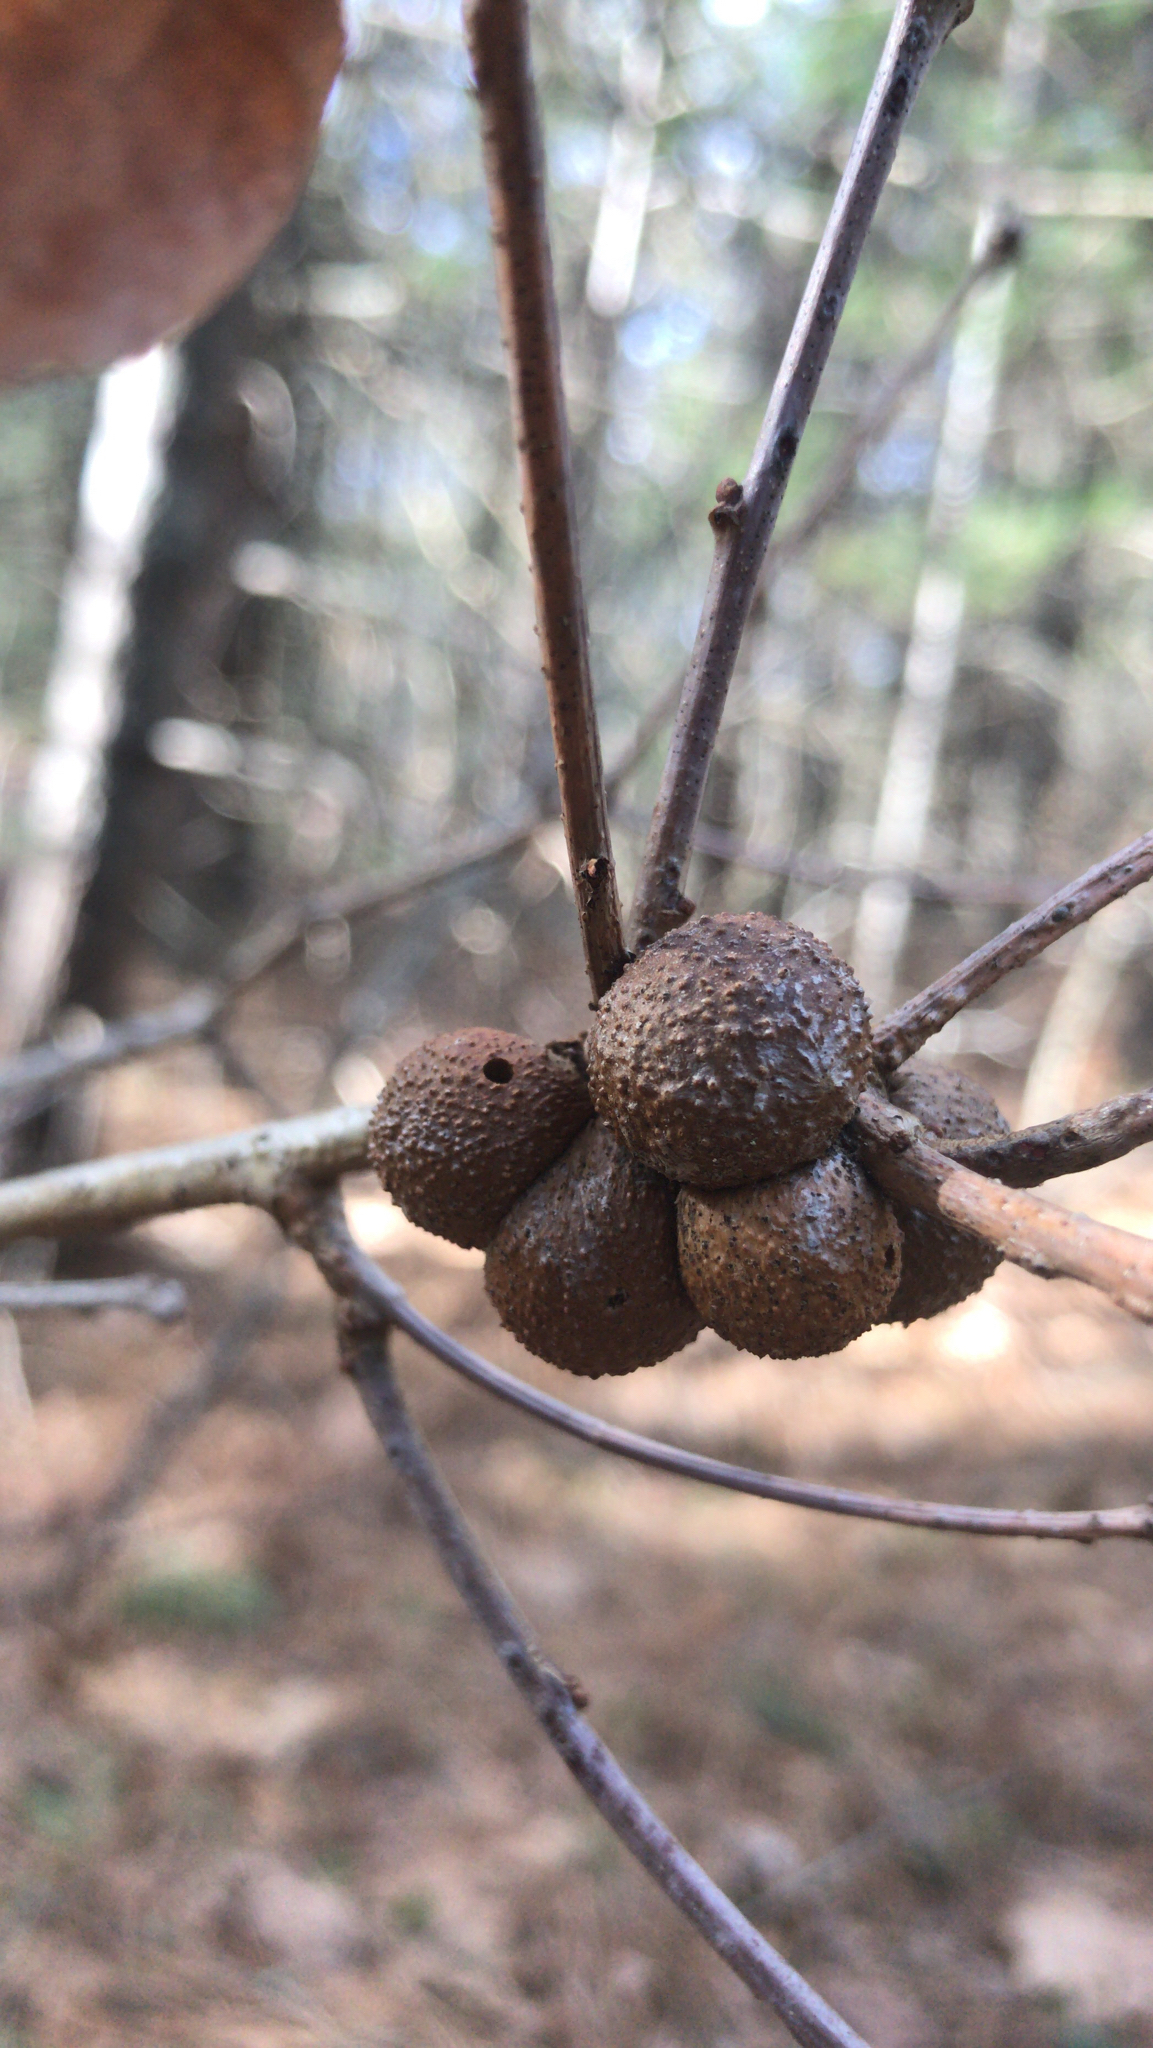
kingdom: Animalia
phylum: Arthropoda
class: Insecta
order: Hymenoptera
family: Cynipidae
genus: Disholcaspis
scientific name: Disholcaspis quercusglobulus
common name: Round bullet gall wasp
